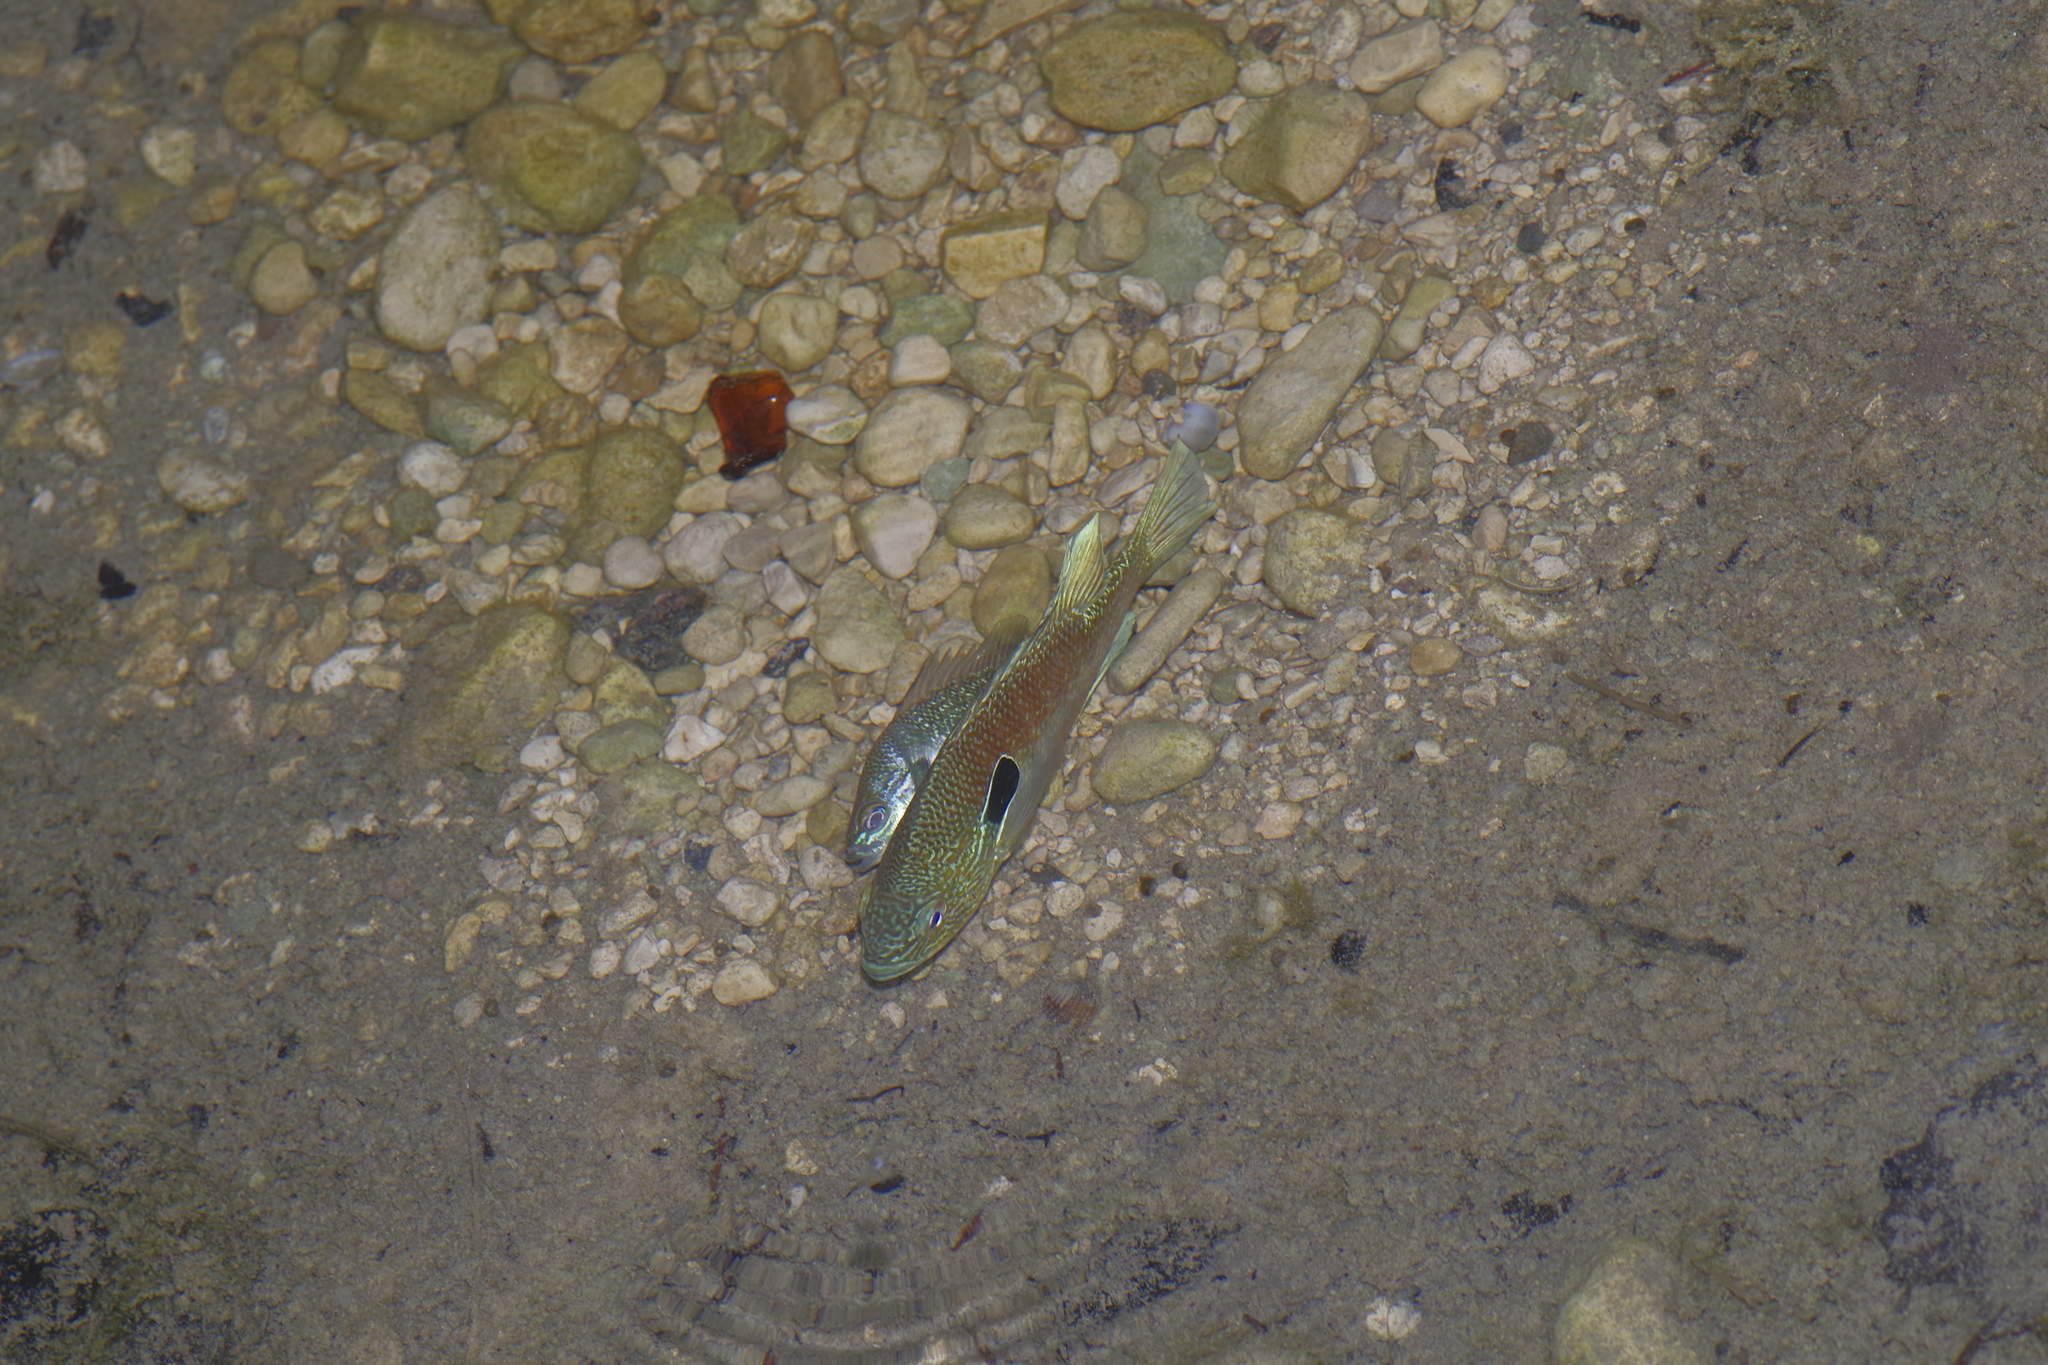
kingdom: Animalia
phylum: Chordata
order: Perciformes
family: Centrarchidae
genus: Lepomis
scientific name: Lepomis megalotis
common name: Longear sunfish
